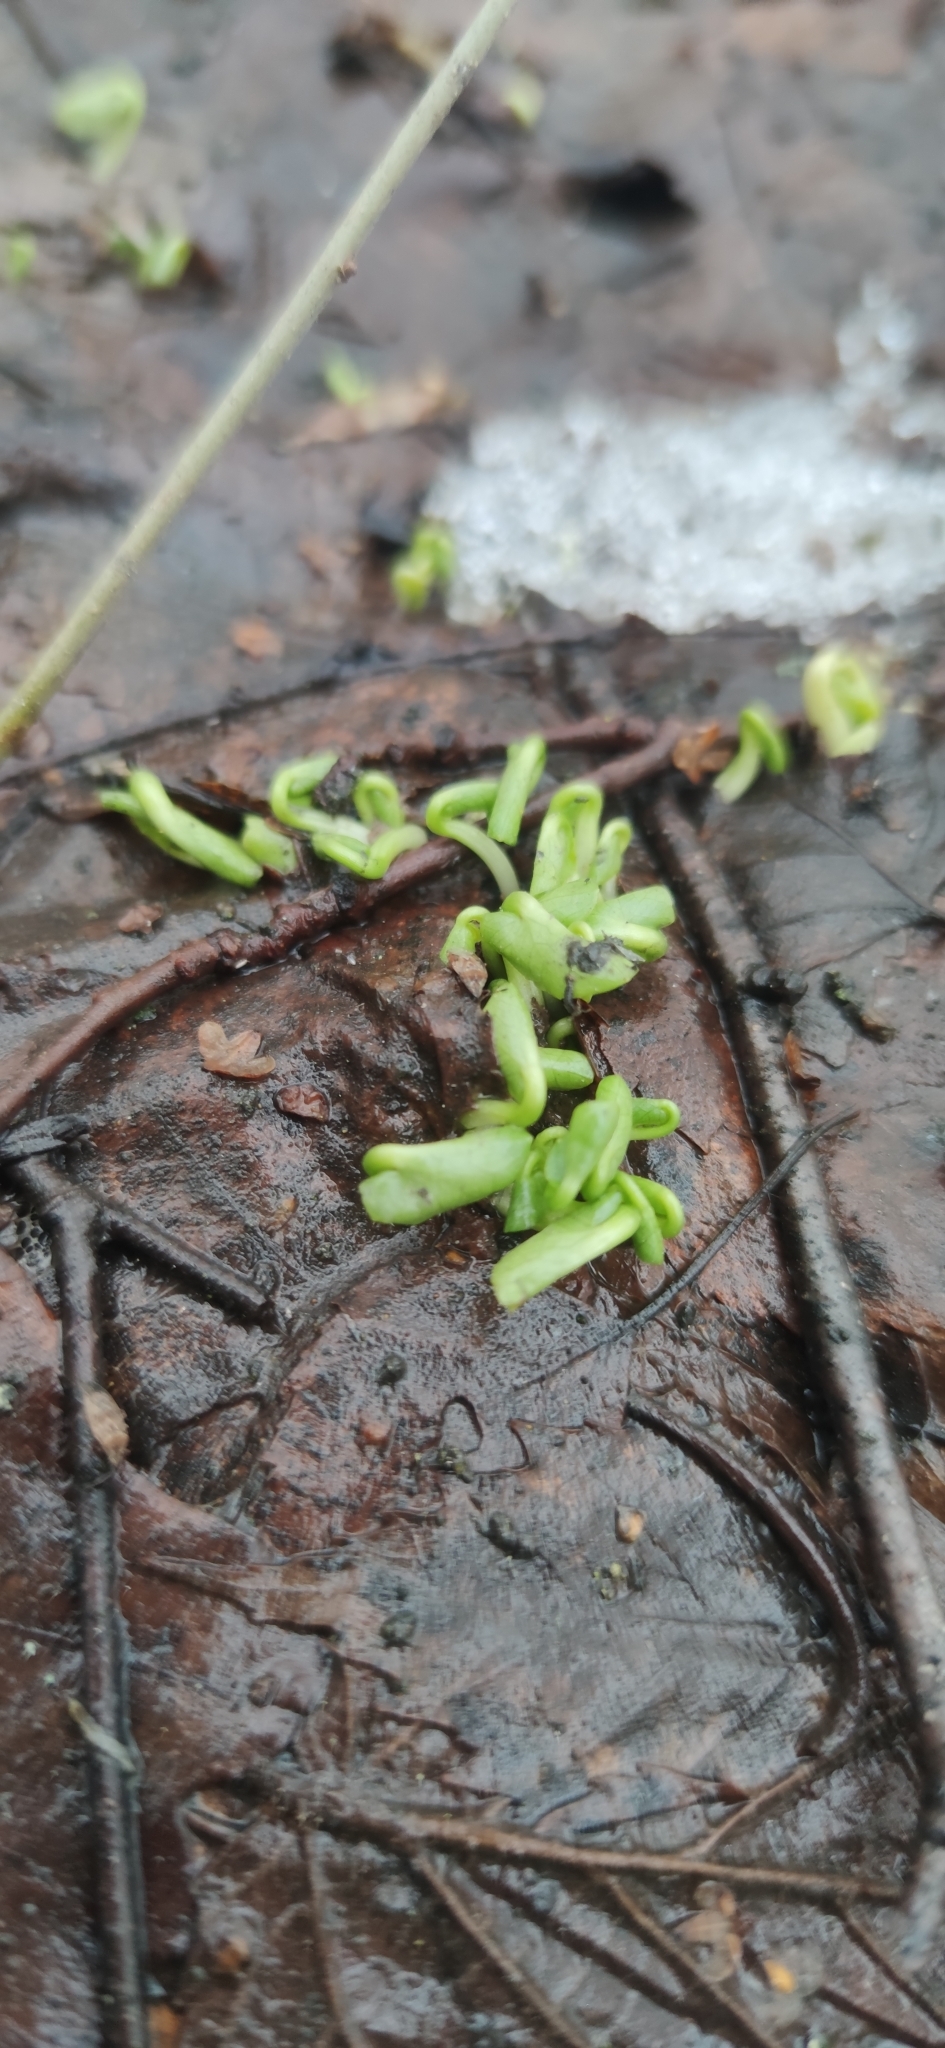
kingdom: Plantae
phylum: Tracheophyta
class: Magnoliopsida
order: Ranunculales
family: Ranunculaceae
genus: Ficaria
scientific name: Ficaria verna
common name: Lesser celandine
